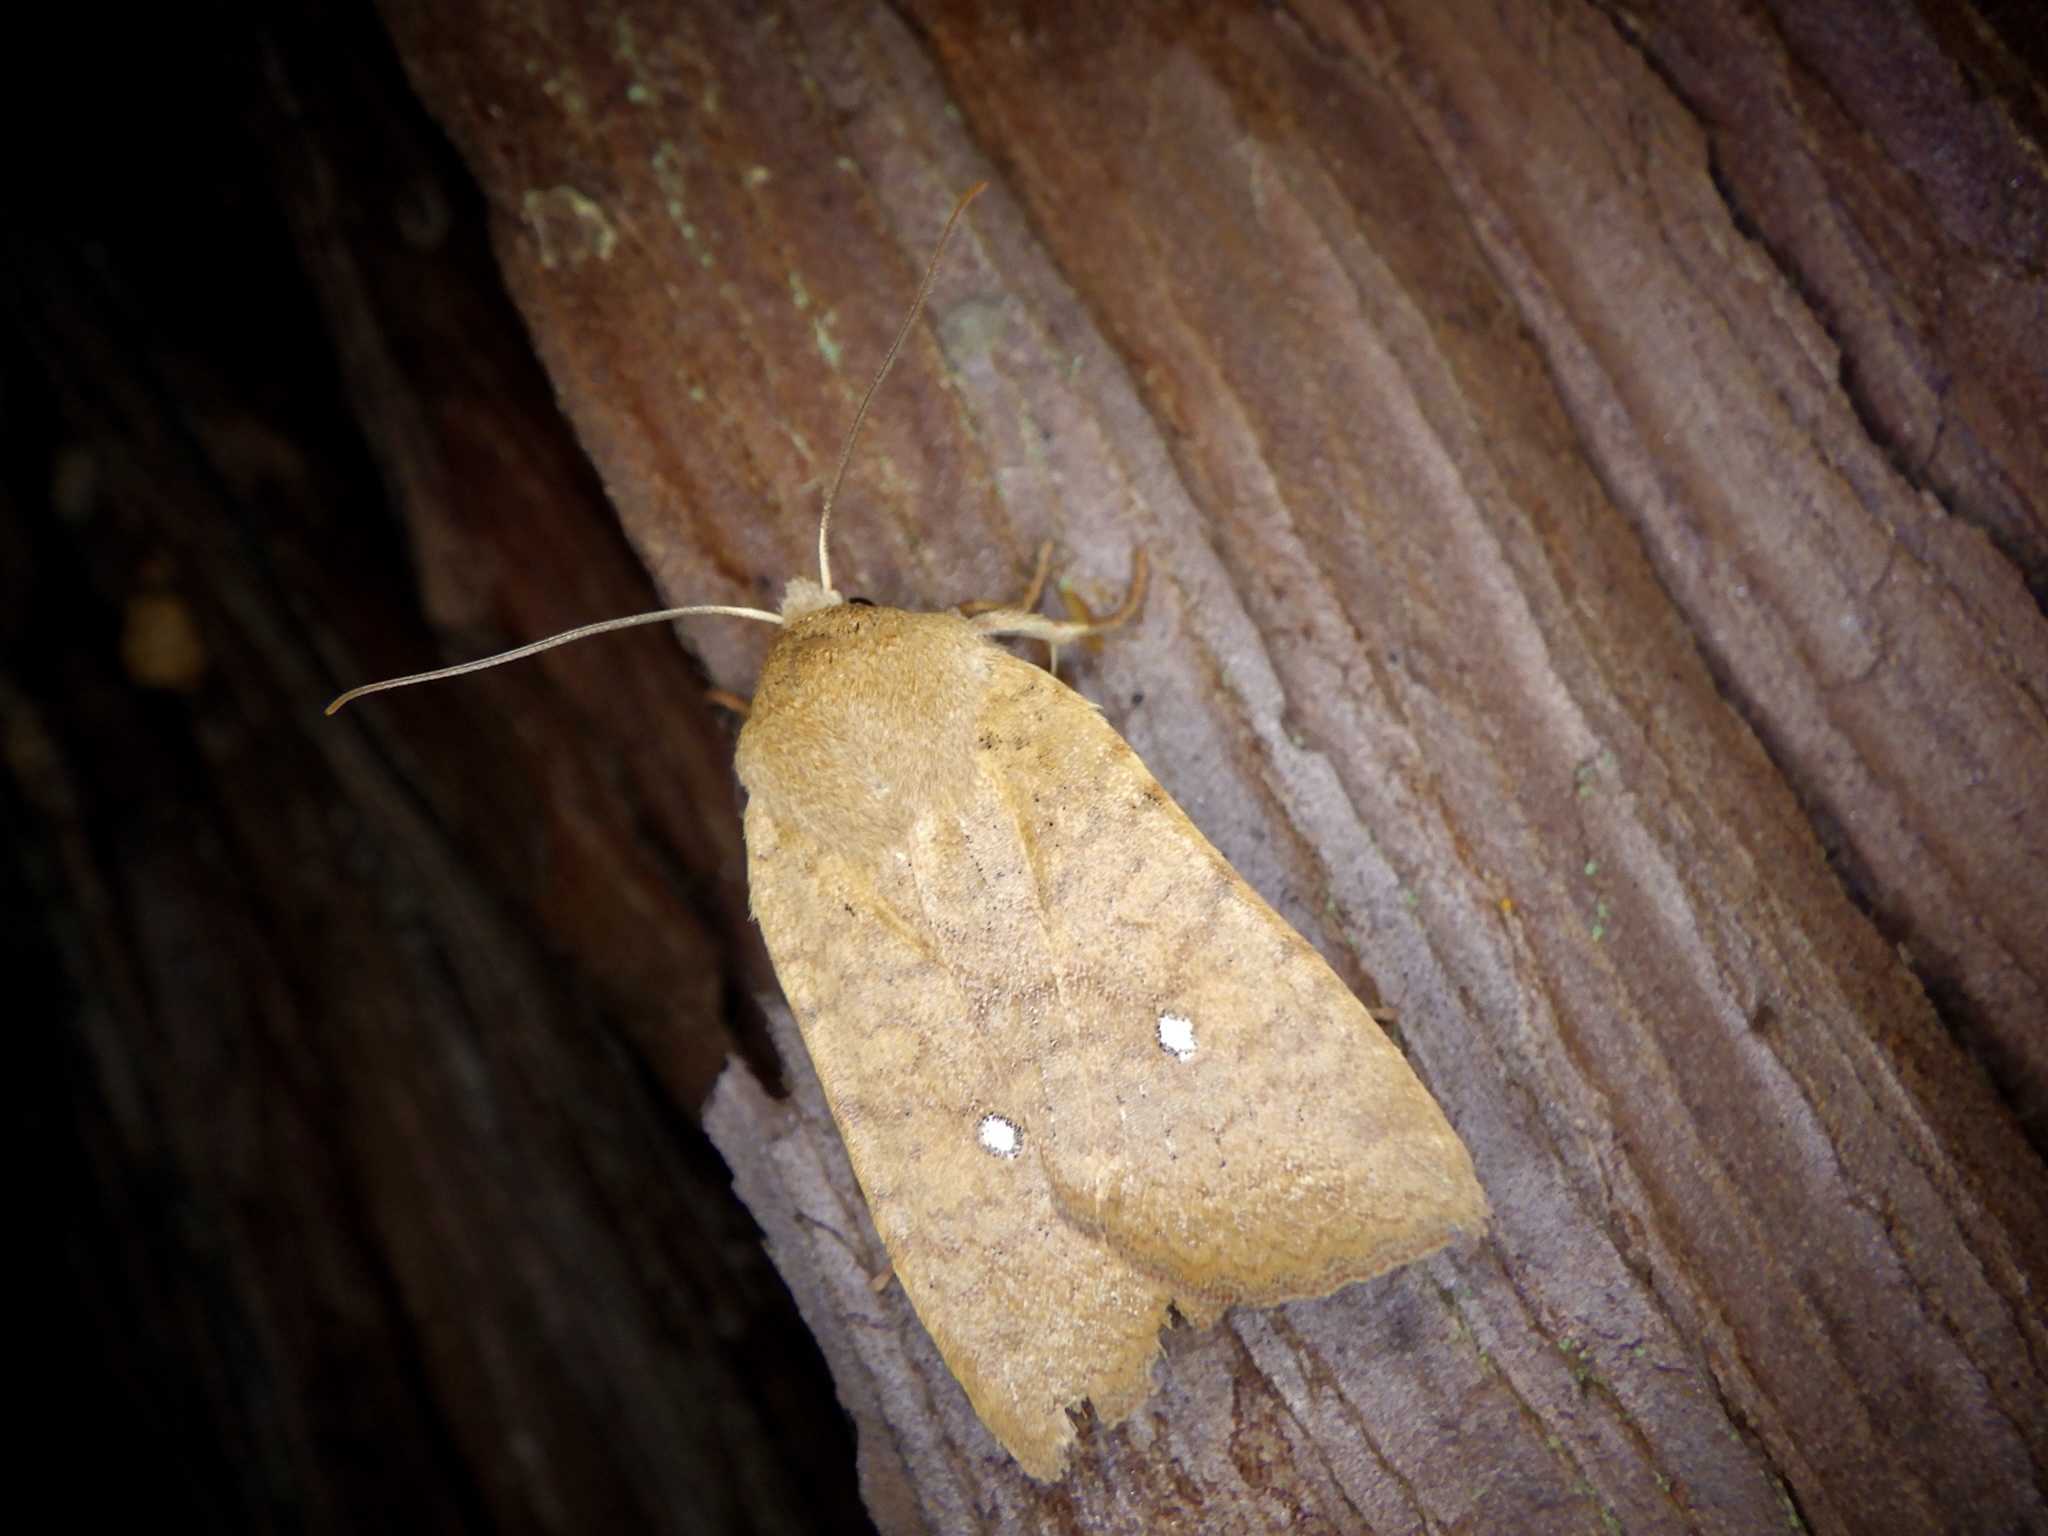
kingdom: Animalia
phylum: Arthropoda
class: Insecta
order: Lepidoptera
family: Noctuidae
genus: Conistra
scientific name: Conistra albipuncta
